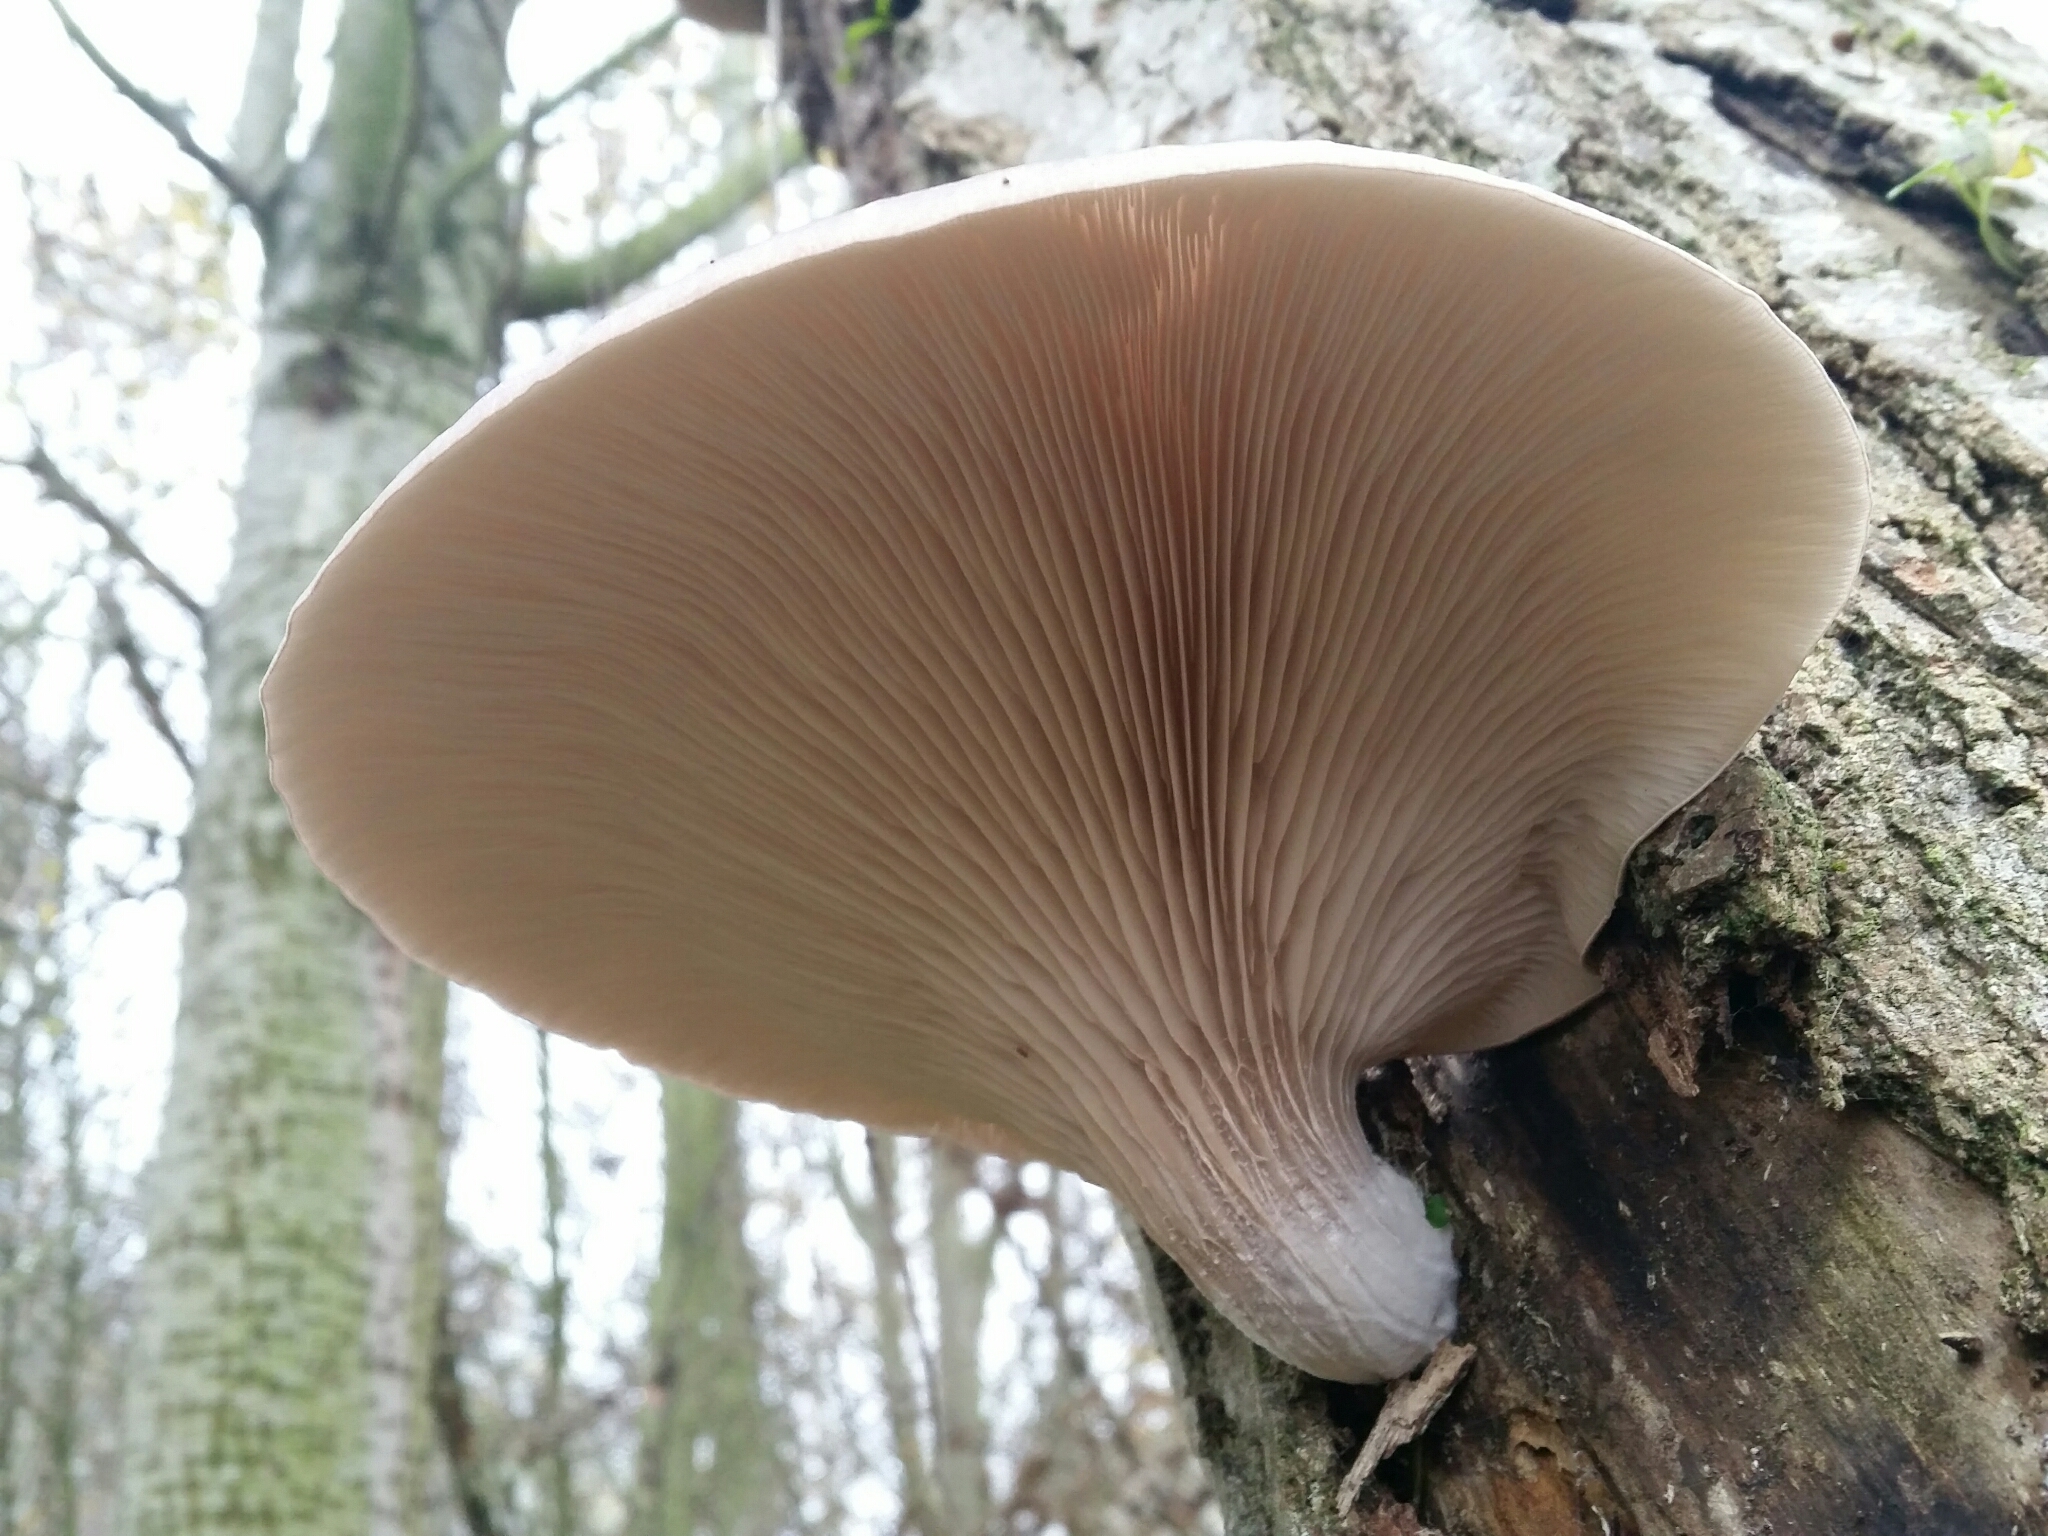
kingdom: Fungi
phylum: Basidiomycota
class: Agaricomycetes
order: Agaricales
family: Pleurotaceae
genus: Pleurotus
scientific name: Pleurotus ostreatus
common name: Oyster mushroom
